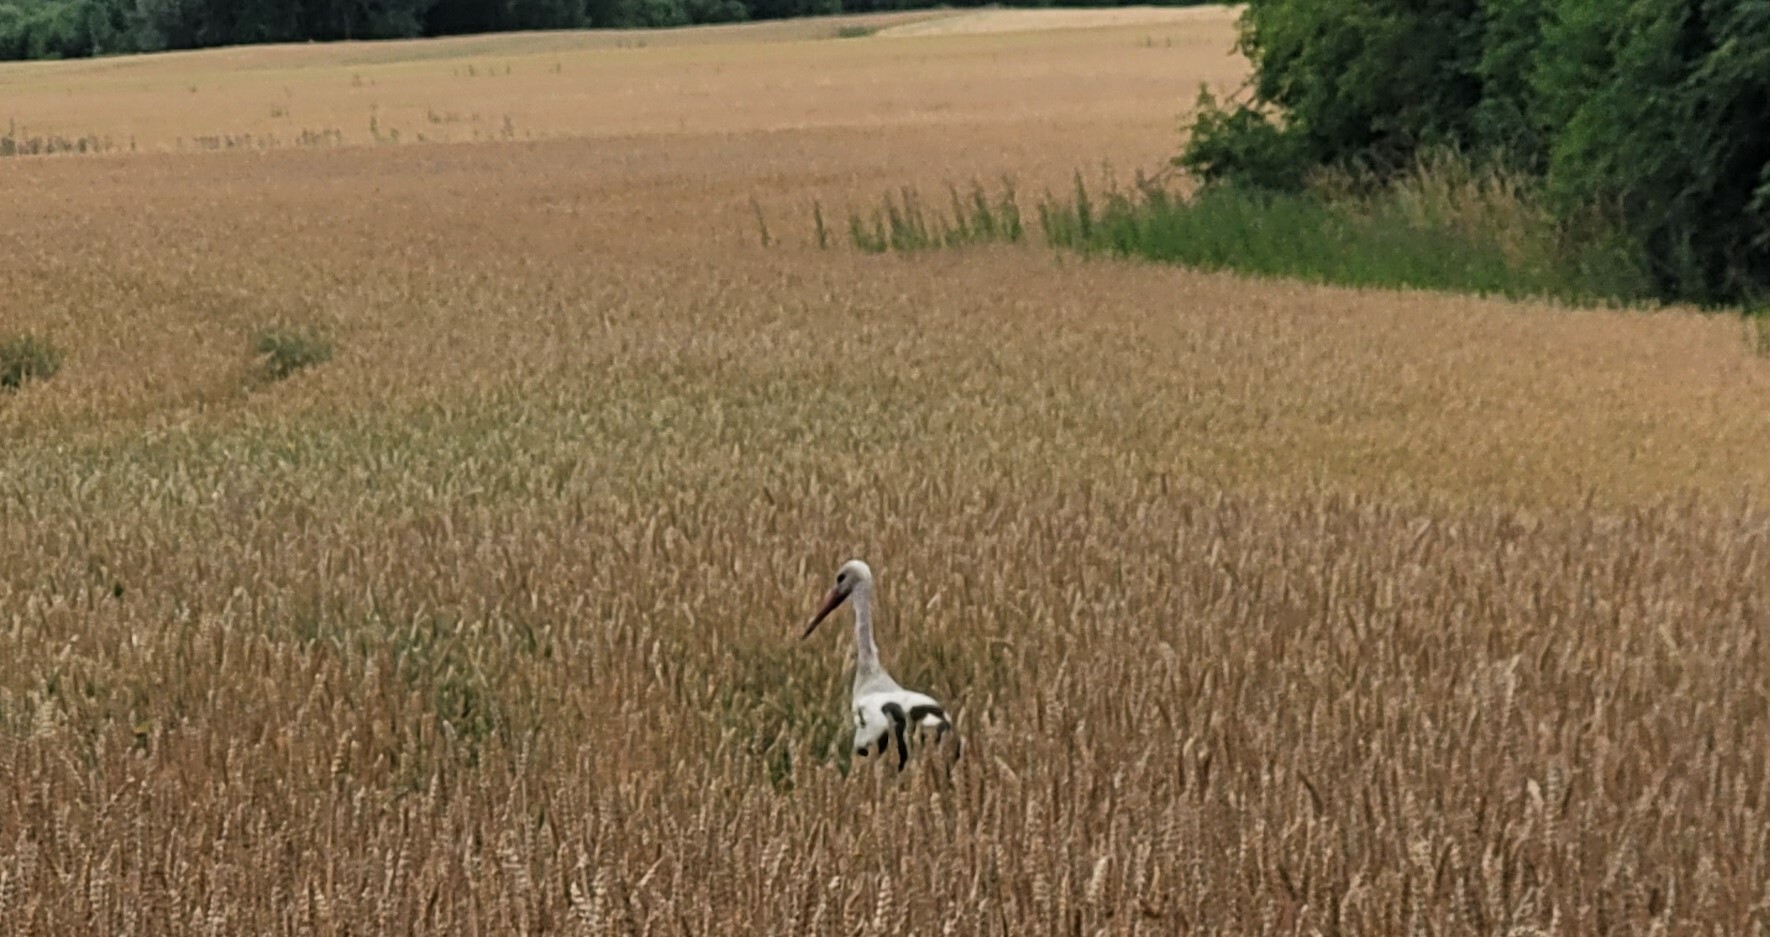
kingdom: Animalia
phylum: Chordata
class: Aves
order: Ciconiiformes
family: Ciconiidae
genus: Ciconia
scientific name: Ciconia ciconia
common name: White stork
